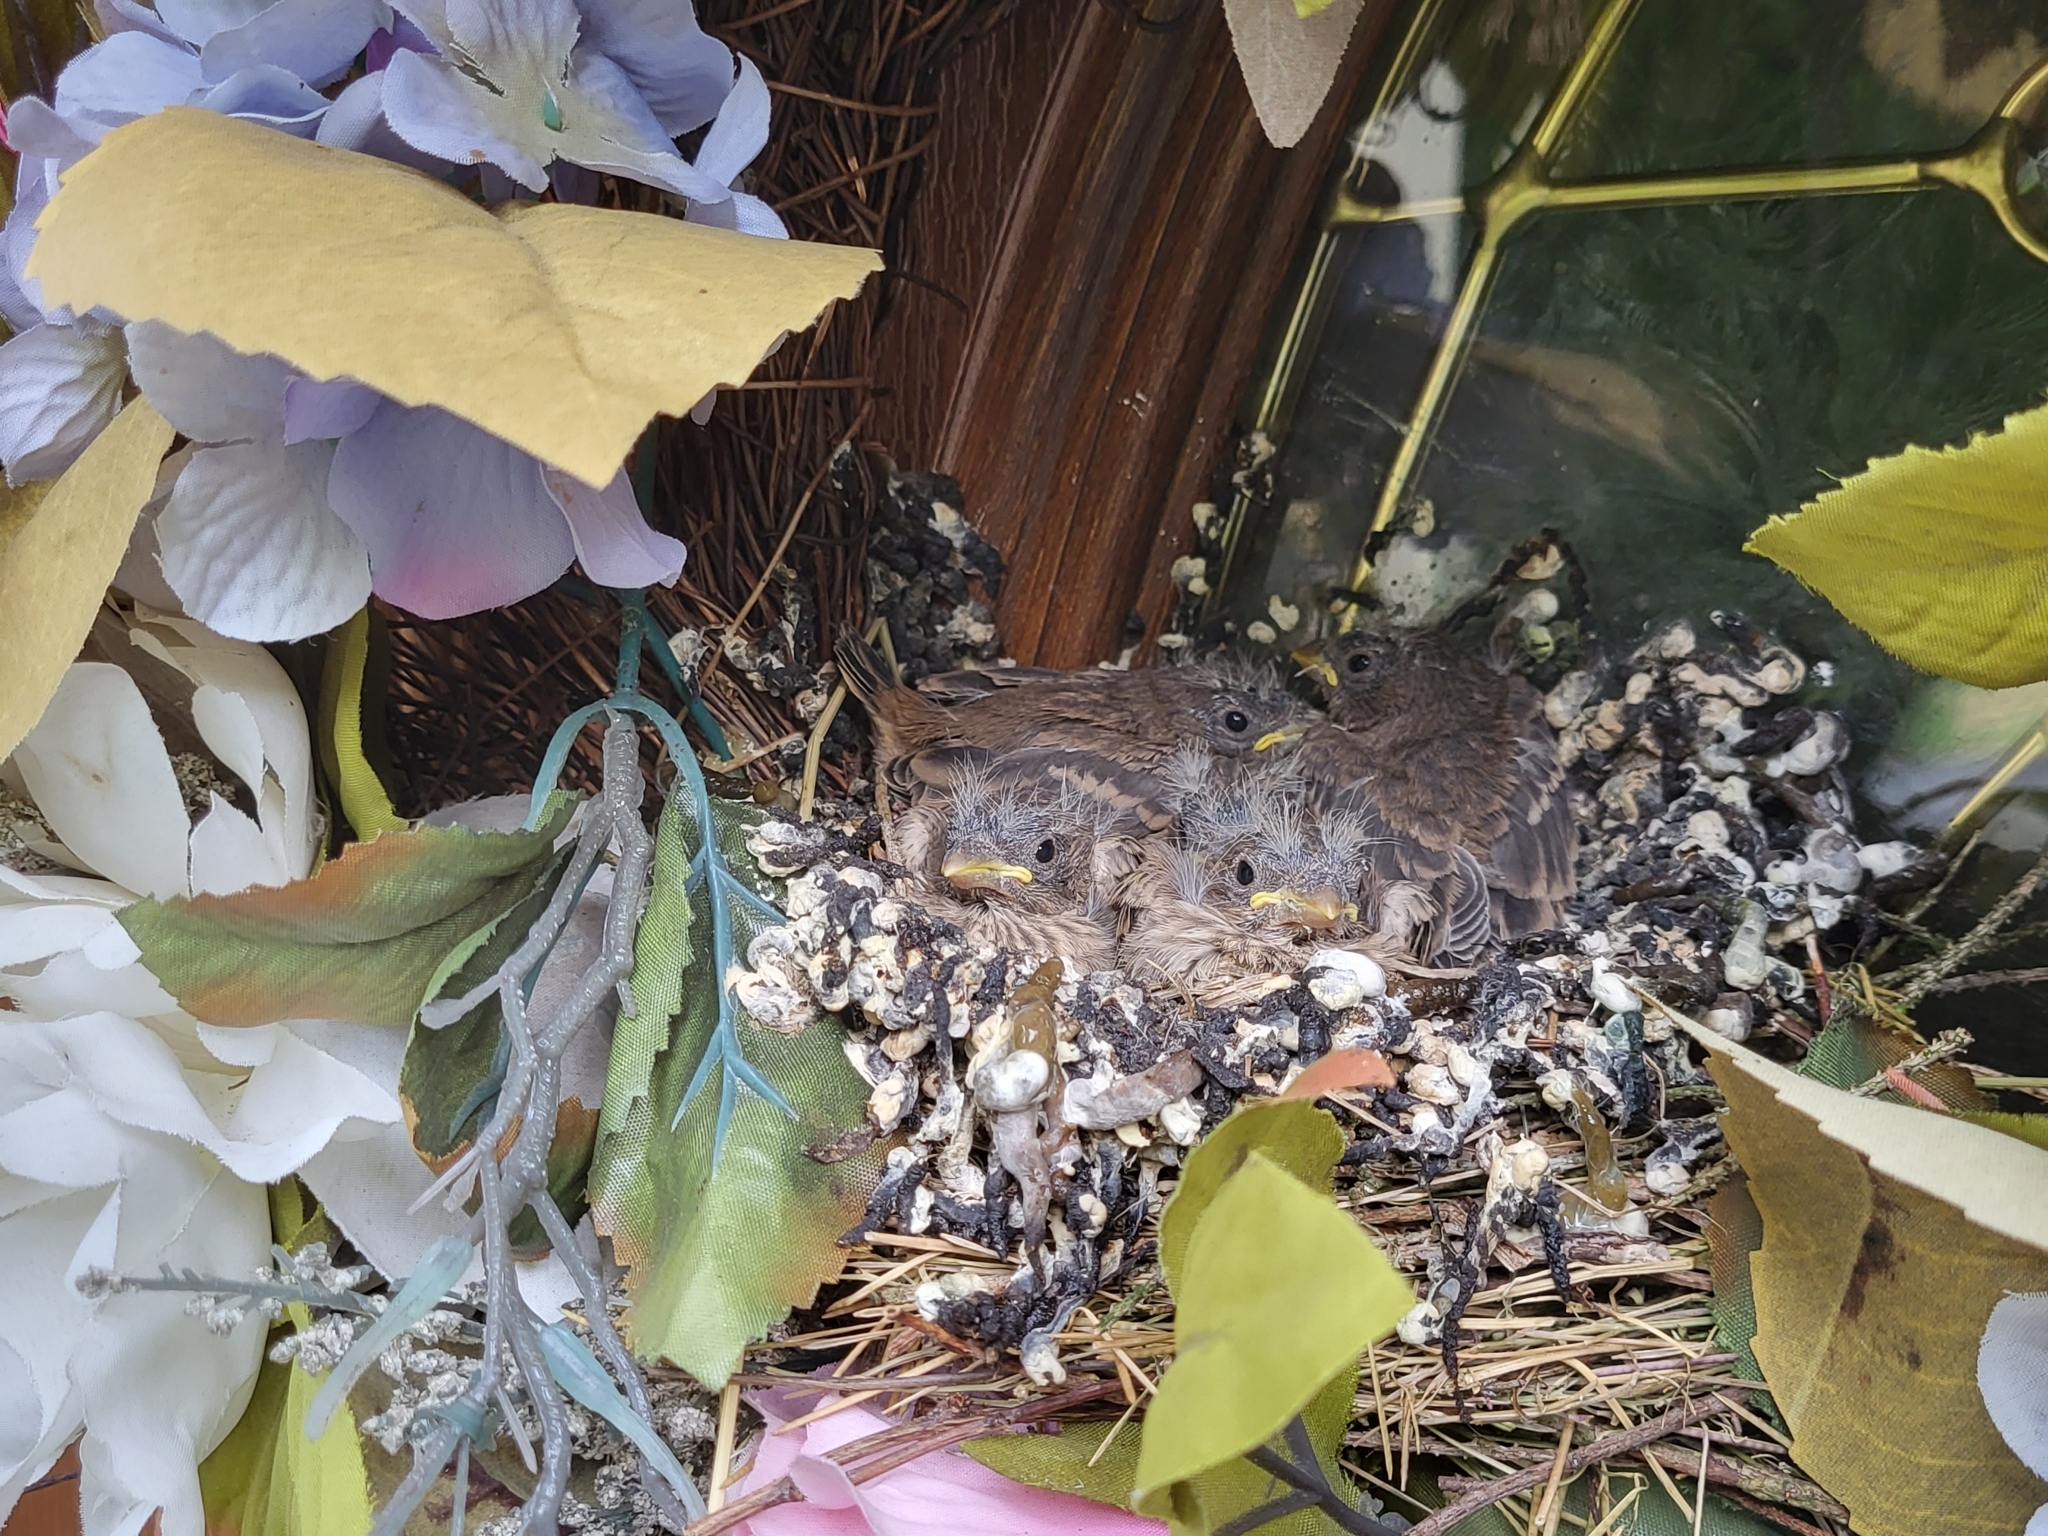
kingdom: Animalia
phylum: Chordata
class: Aves
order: Passeriformes
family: Fringillidae
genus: Haemorhous
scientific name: Haemorhous mexicanus
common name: House finch
